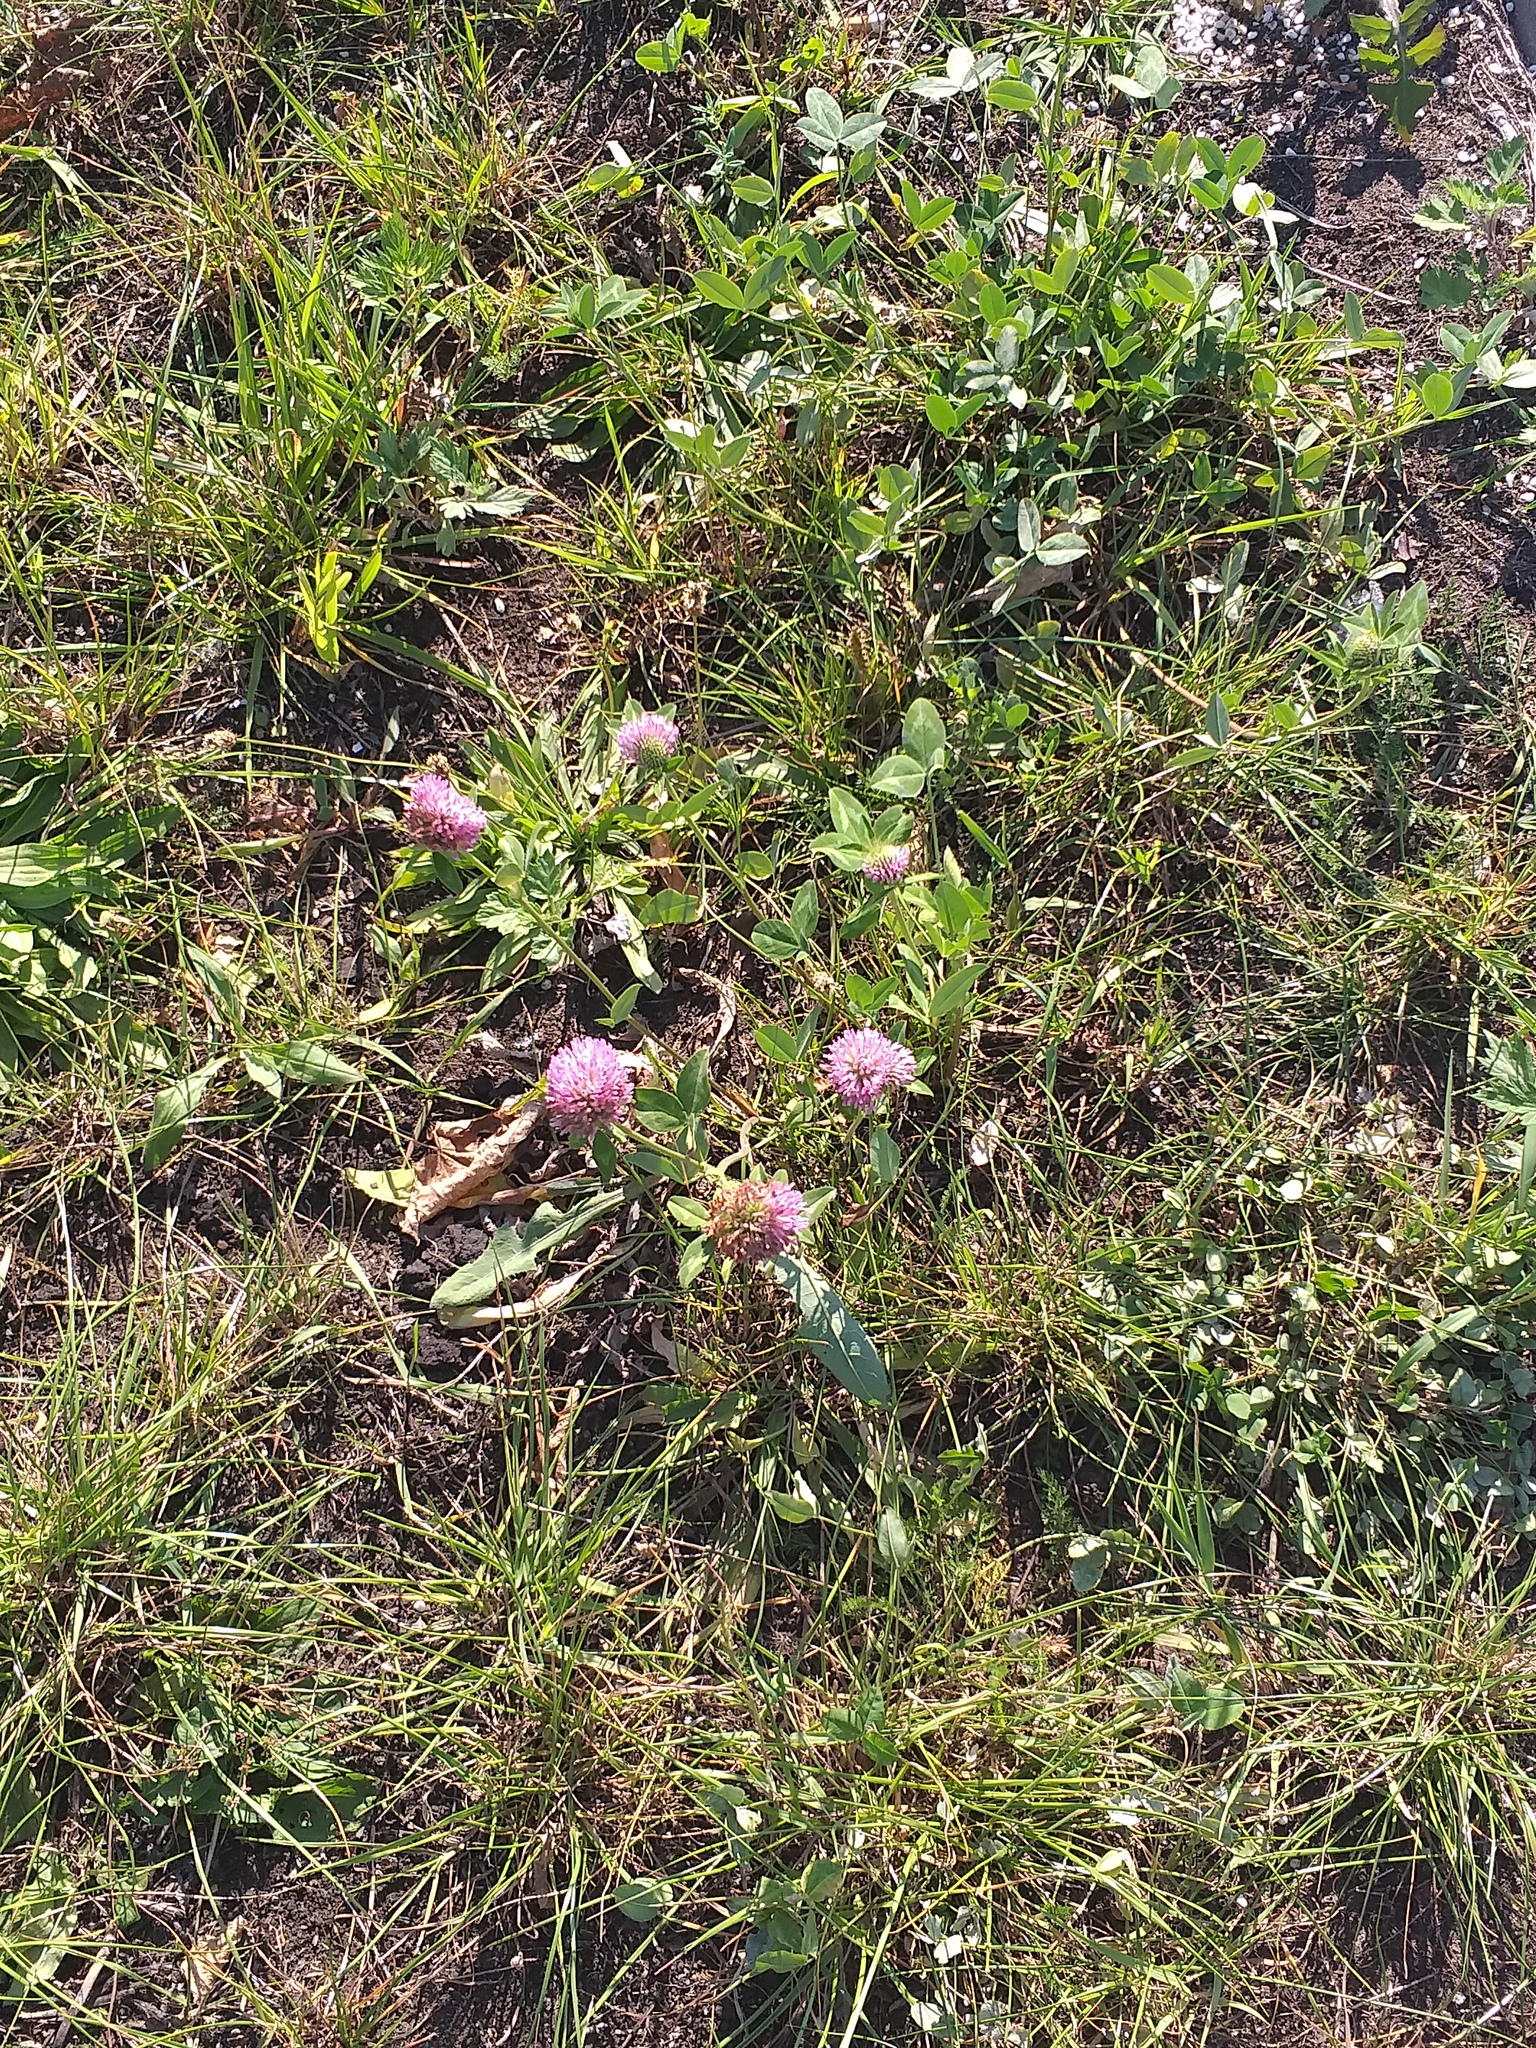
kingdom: Plantae
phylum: Tracheophyta
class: Magnoliopsida
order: Fabales
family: Fabaceae
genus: Trifolium
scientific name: Trifolium pratense
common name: Red clover
